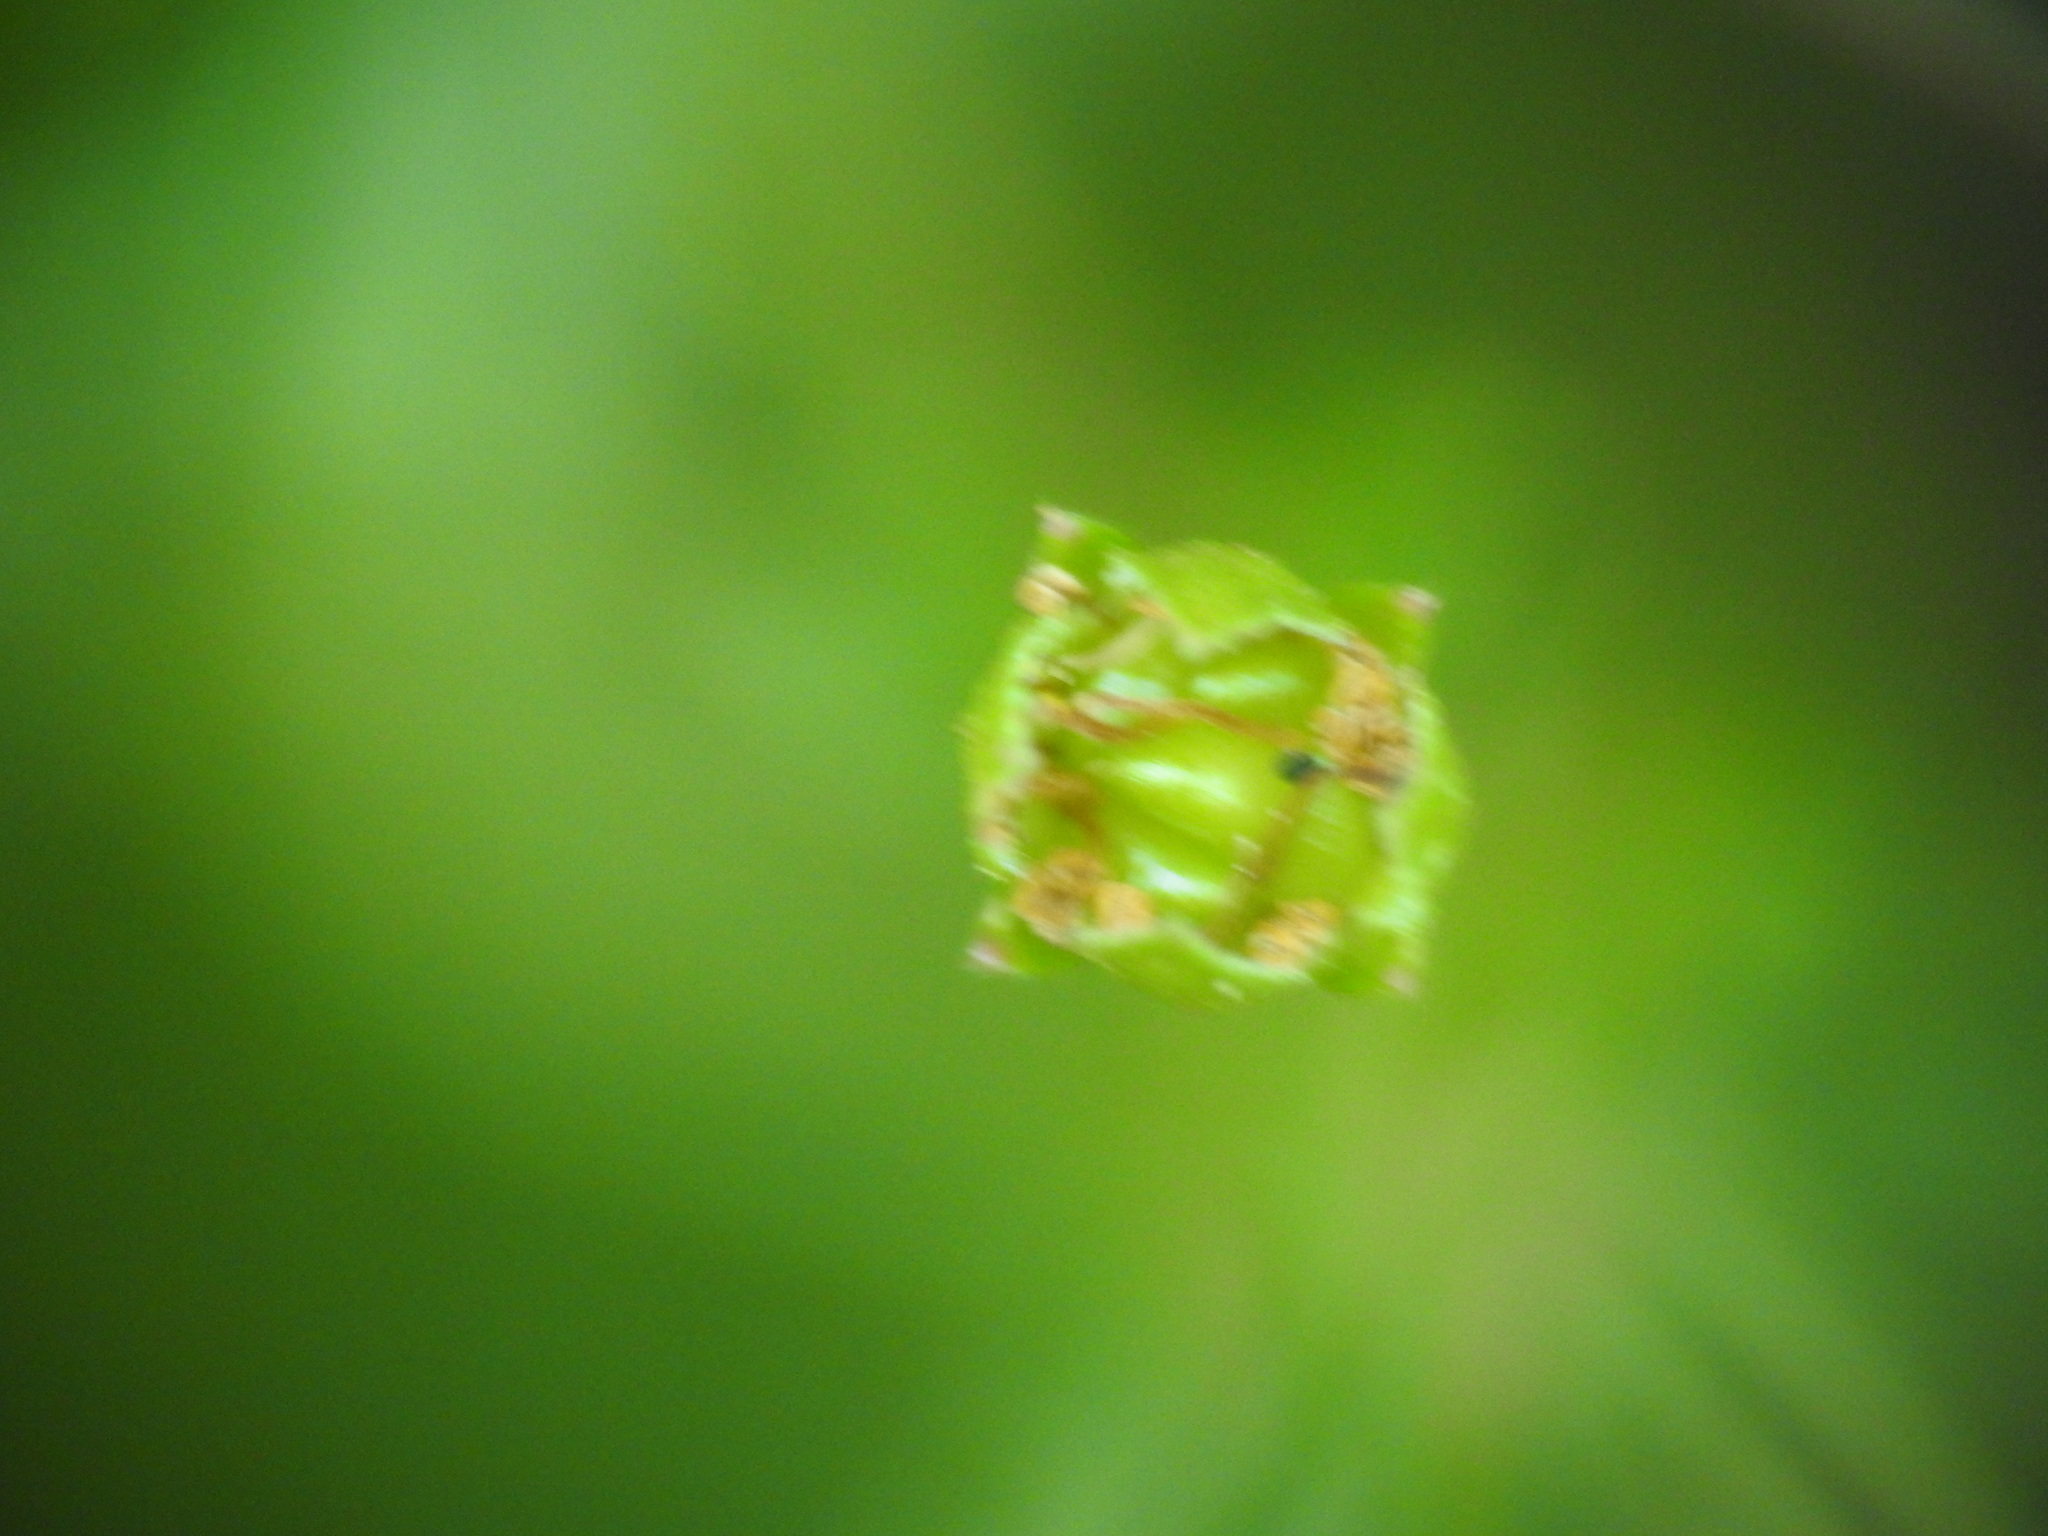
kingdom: Plantae
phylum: Tracheophyta
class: Magnoliopsida
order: Rosales
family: Rosaceae
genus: Potentilla
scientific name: Potentilla erecta
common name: Tormentil
